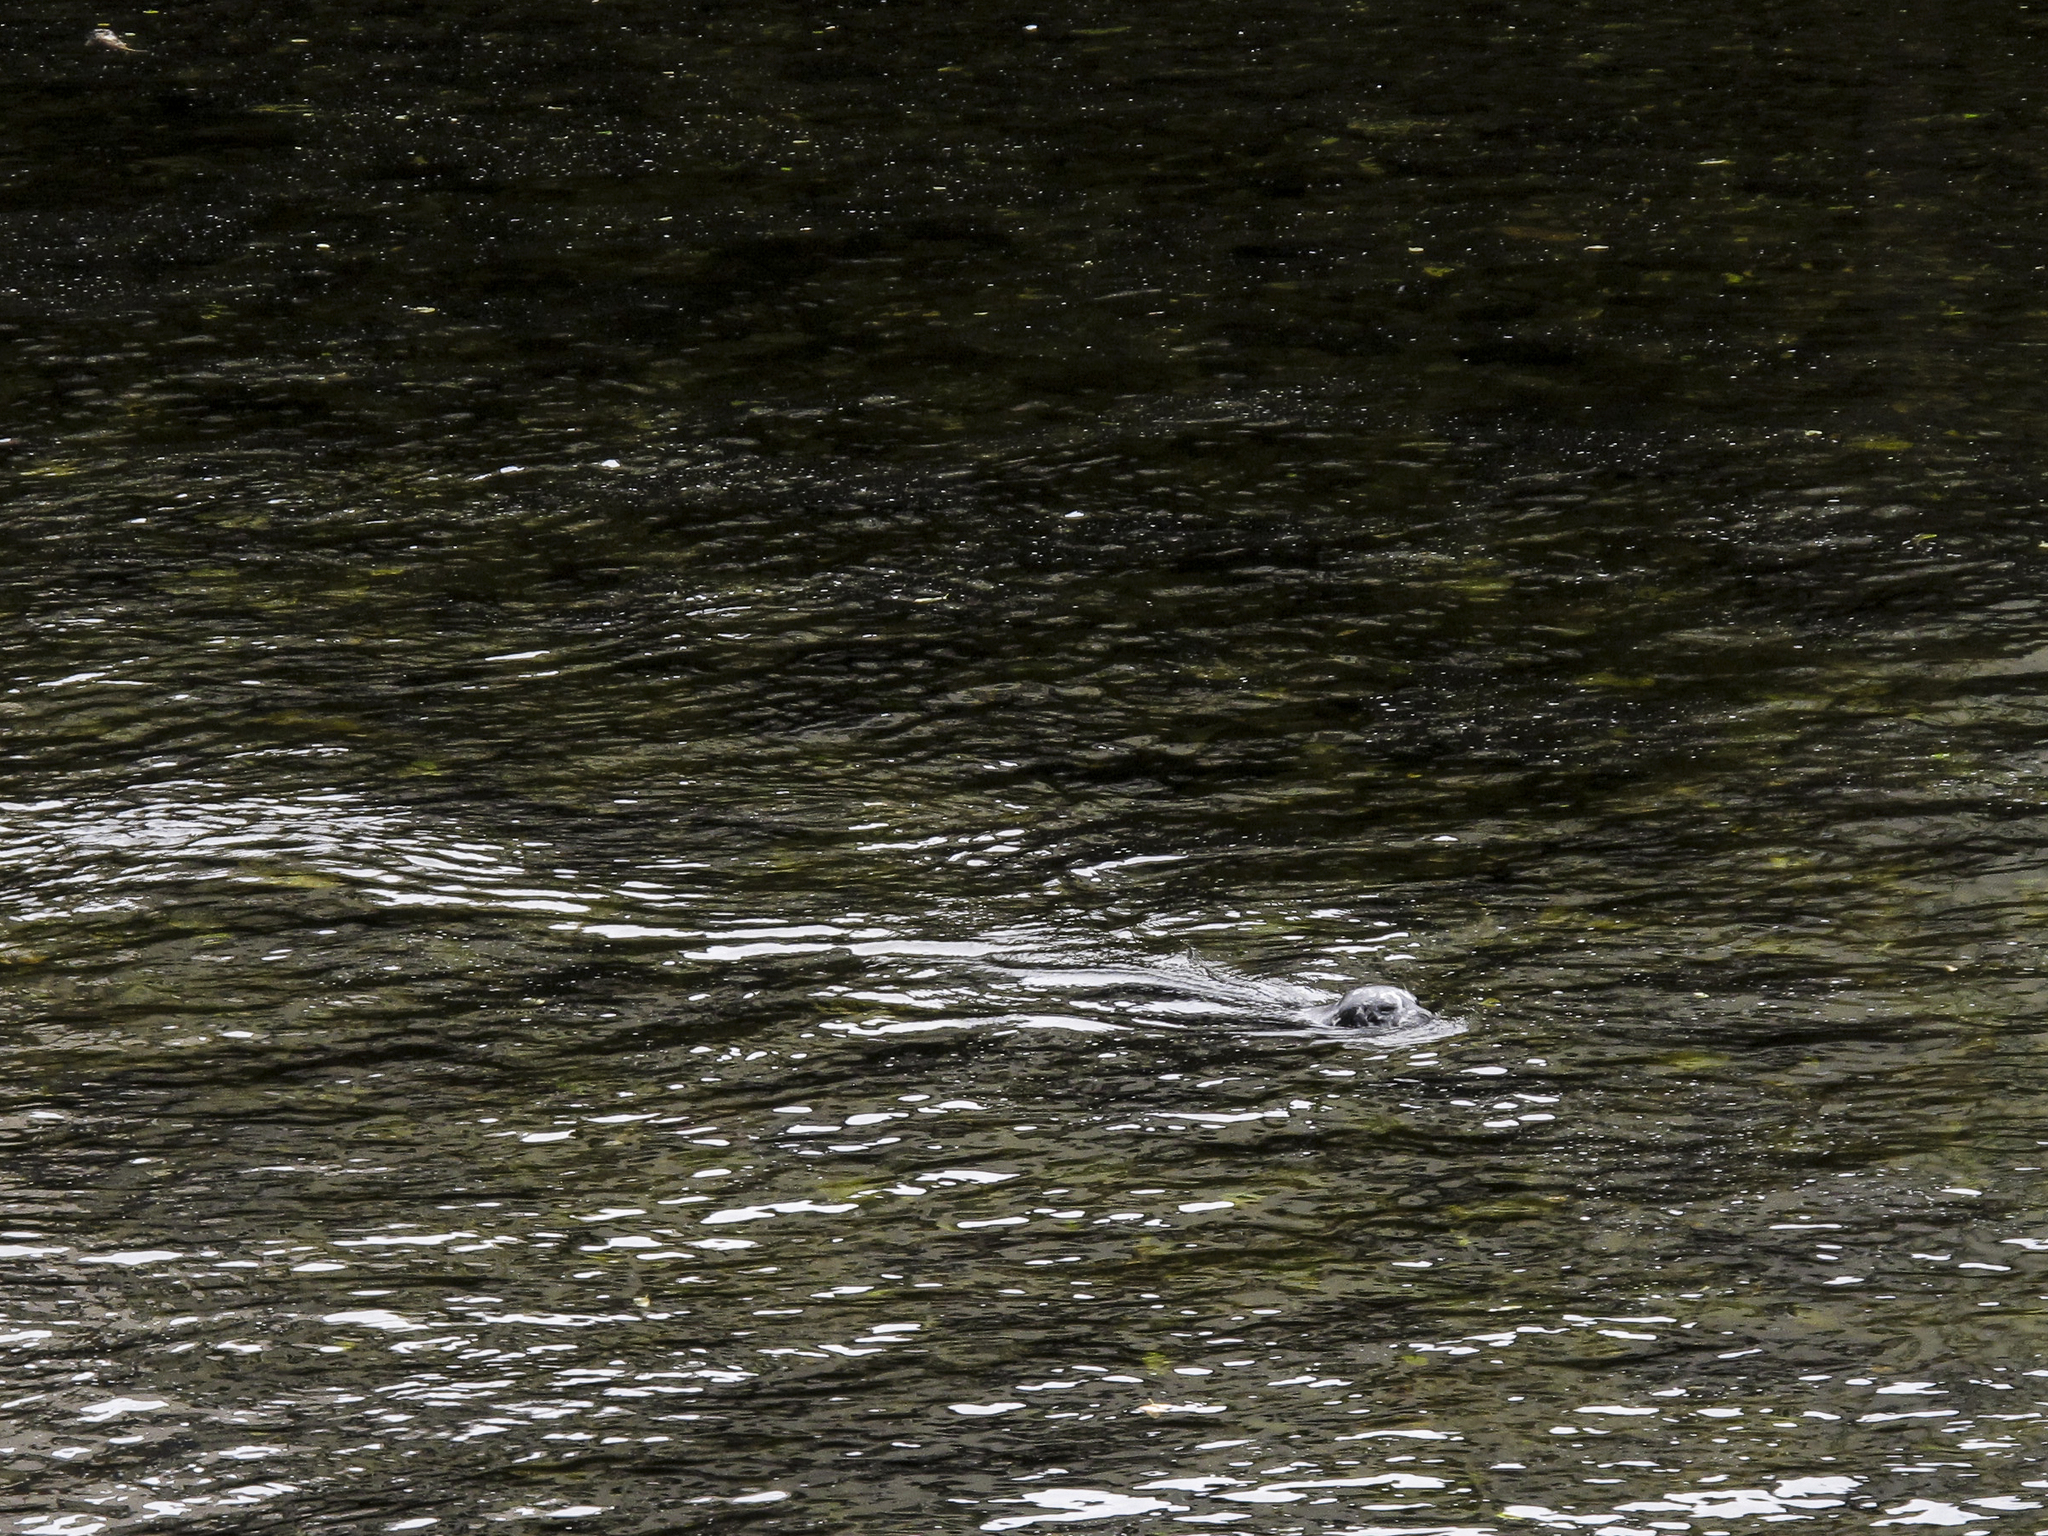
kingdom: Animalia
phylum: Chordata
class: Mammalia
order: Carnivora
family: Phocidae
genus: Phoca
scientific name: Phoca vitulina
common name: Harbor seal
